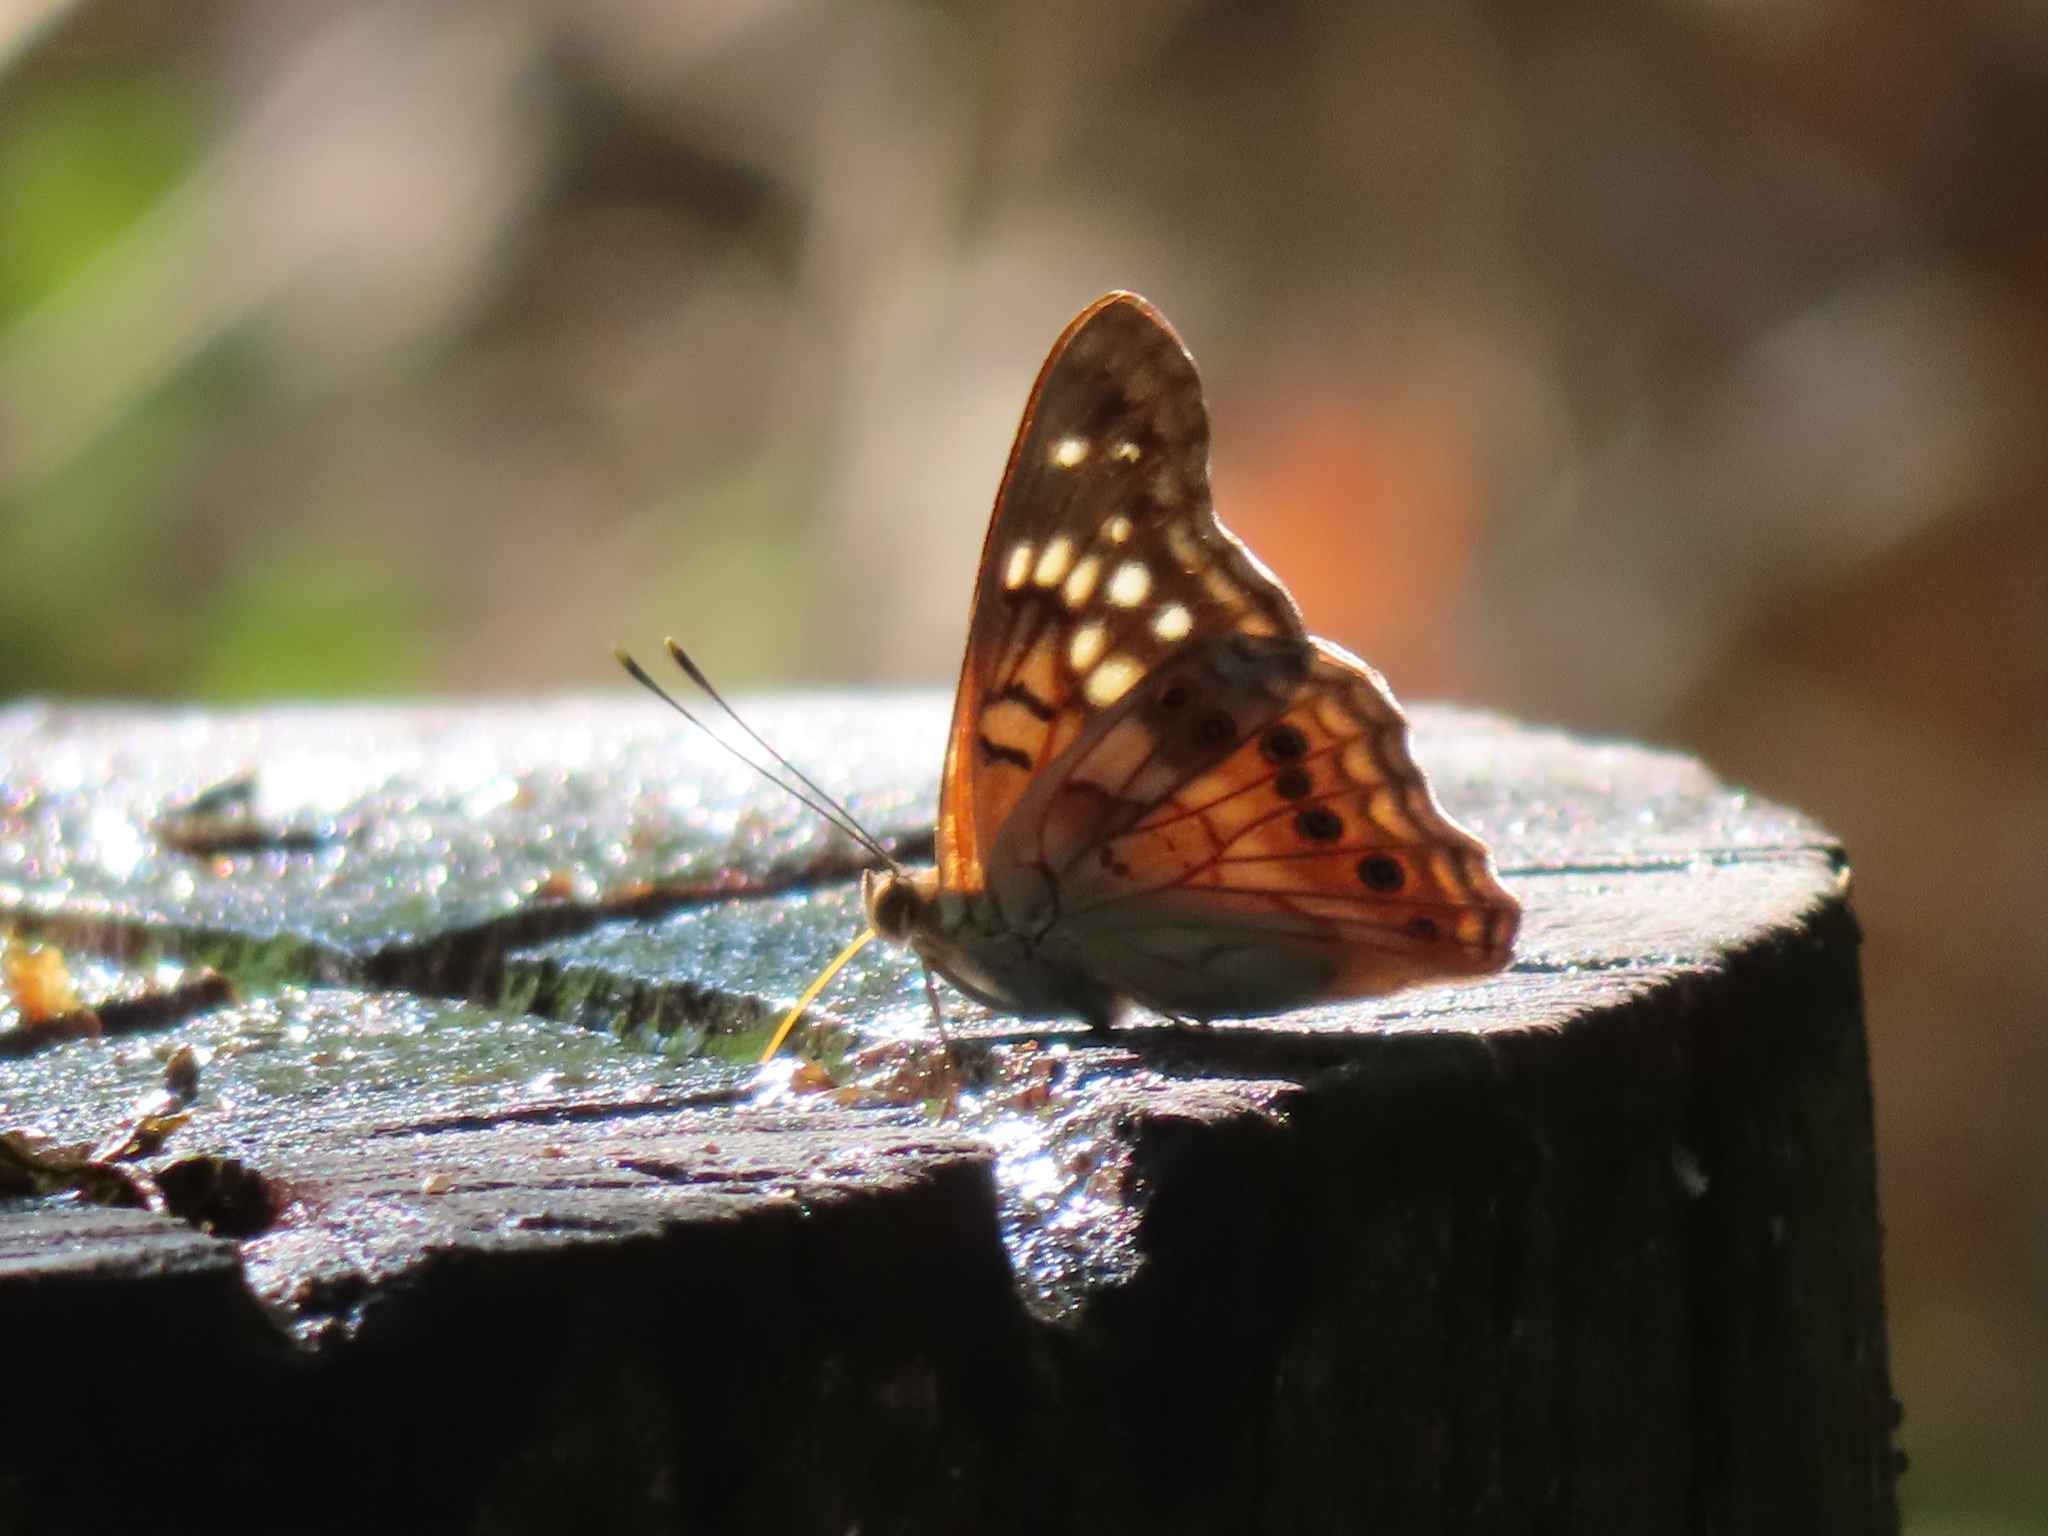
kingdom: Animalia
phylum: Arthropoda
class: Insecta
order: Lepidoptera
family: Nymphalidae
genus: Asterocampa
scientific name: Asterocampa clyton
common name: Tawny emperor
